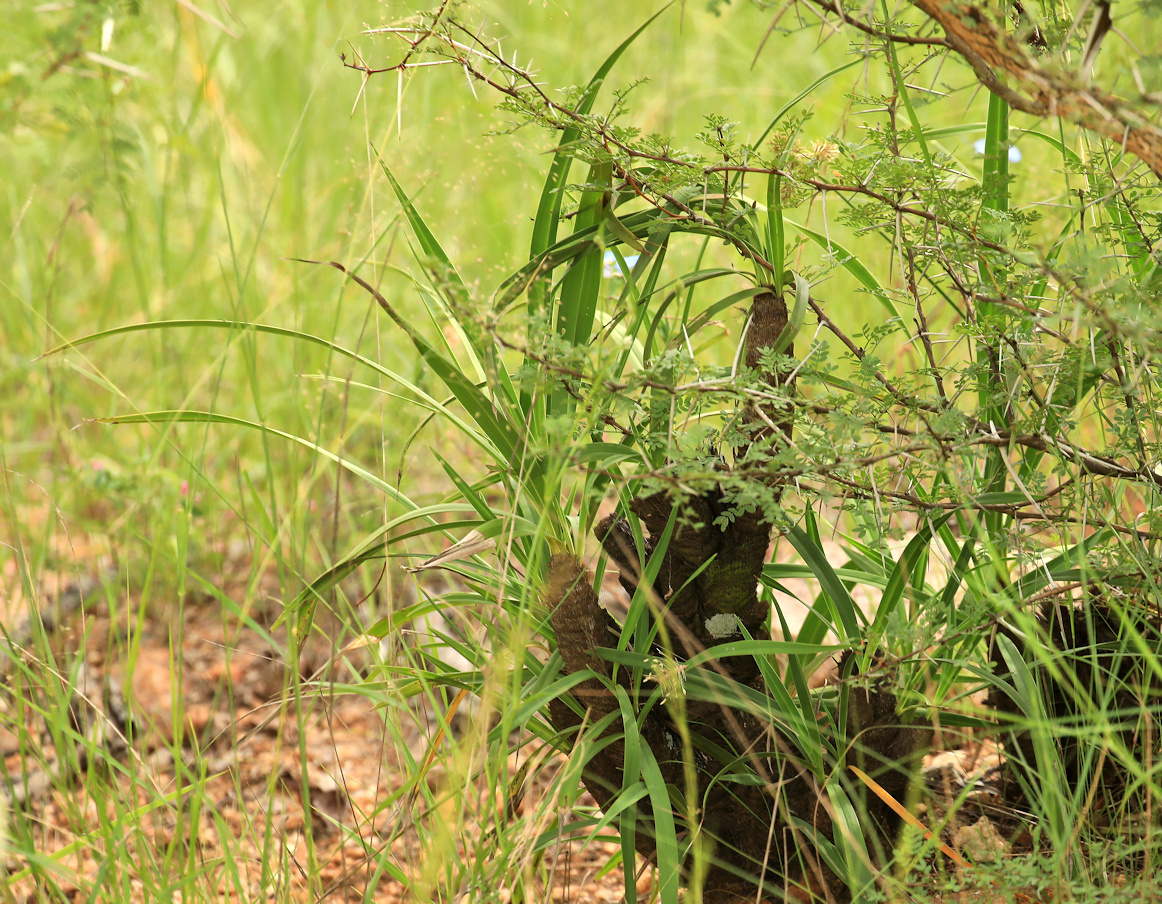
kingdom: Plantae
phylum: Tracheophyta
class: Liliopsida
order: Pandanales
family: Velloziaceae
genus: Xerophyta
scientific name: Xerophyta retinervis
